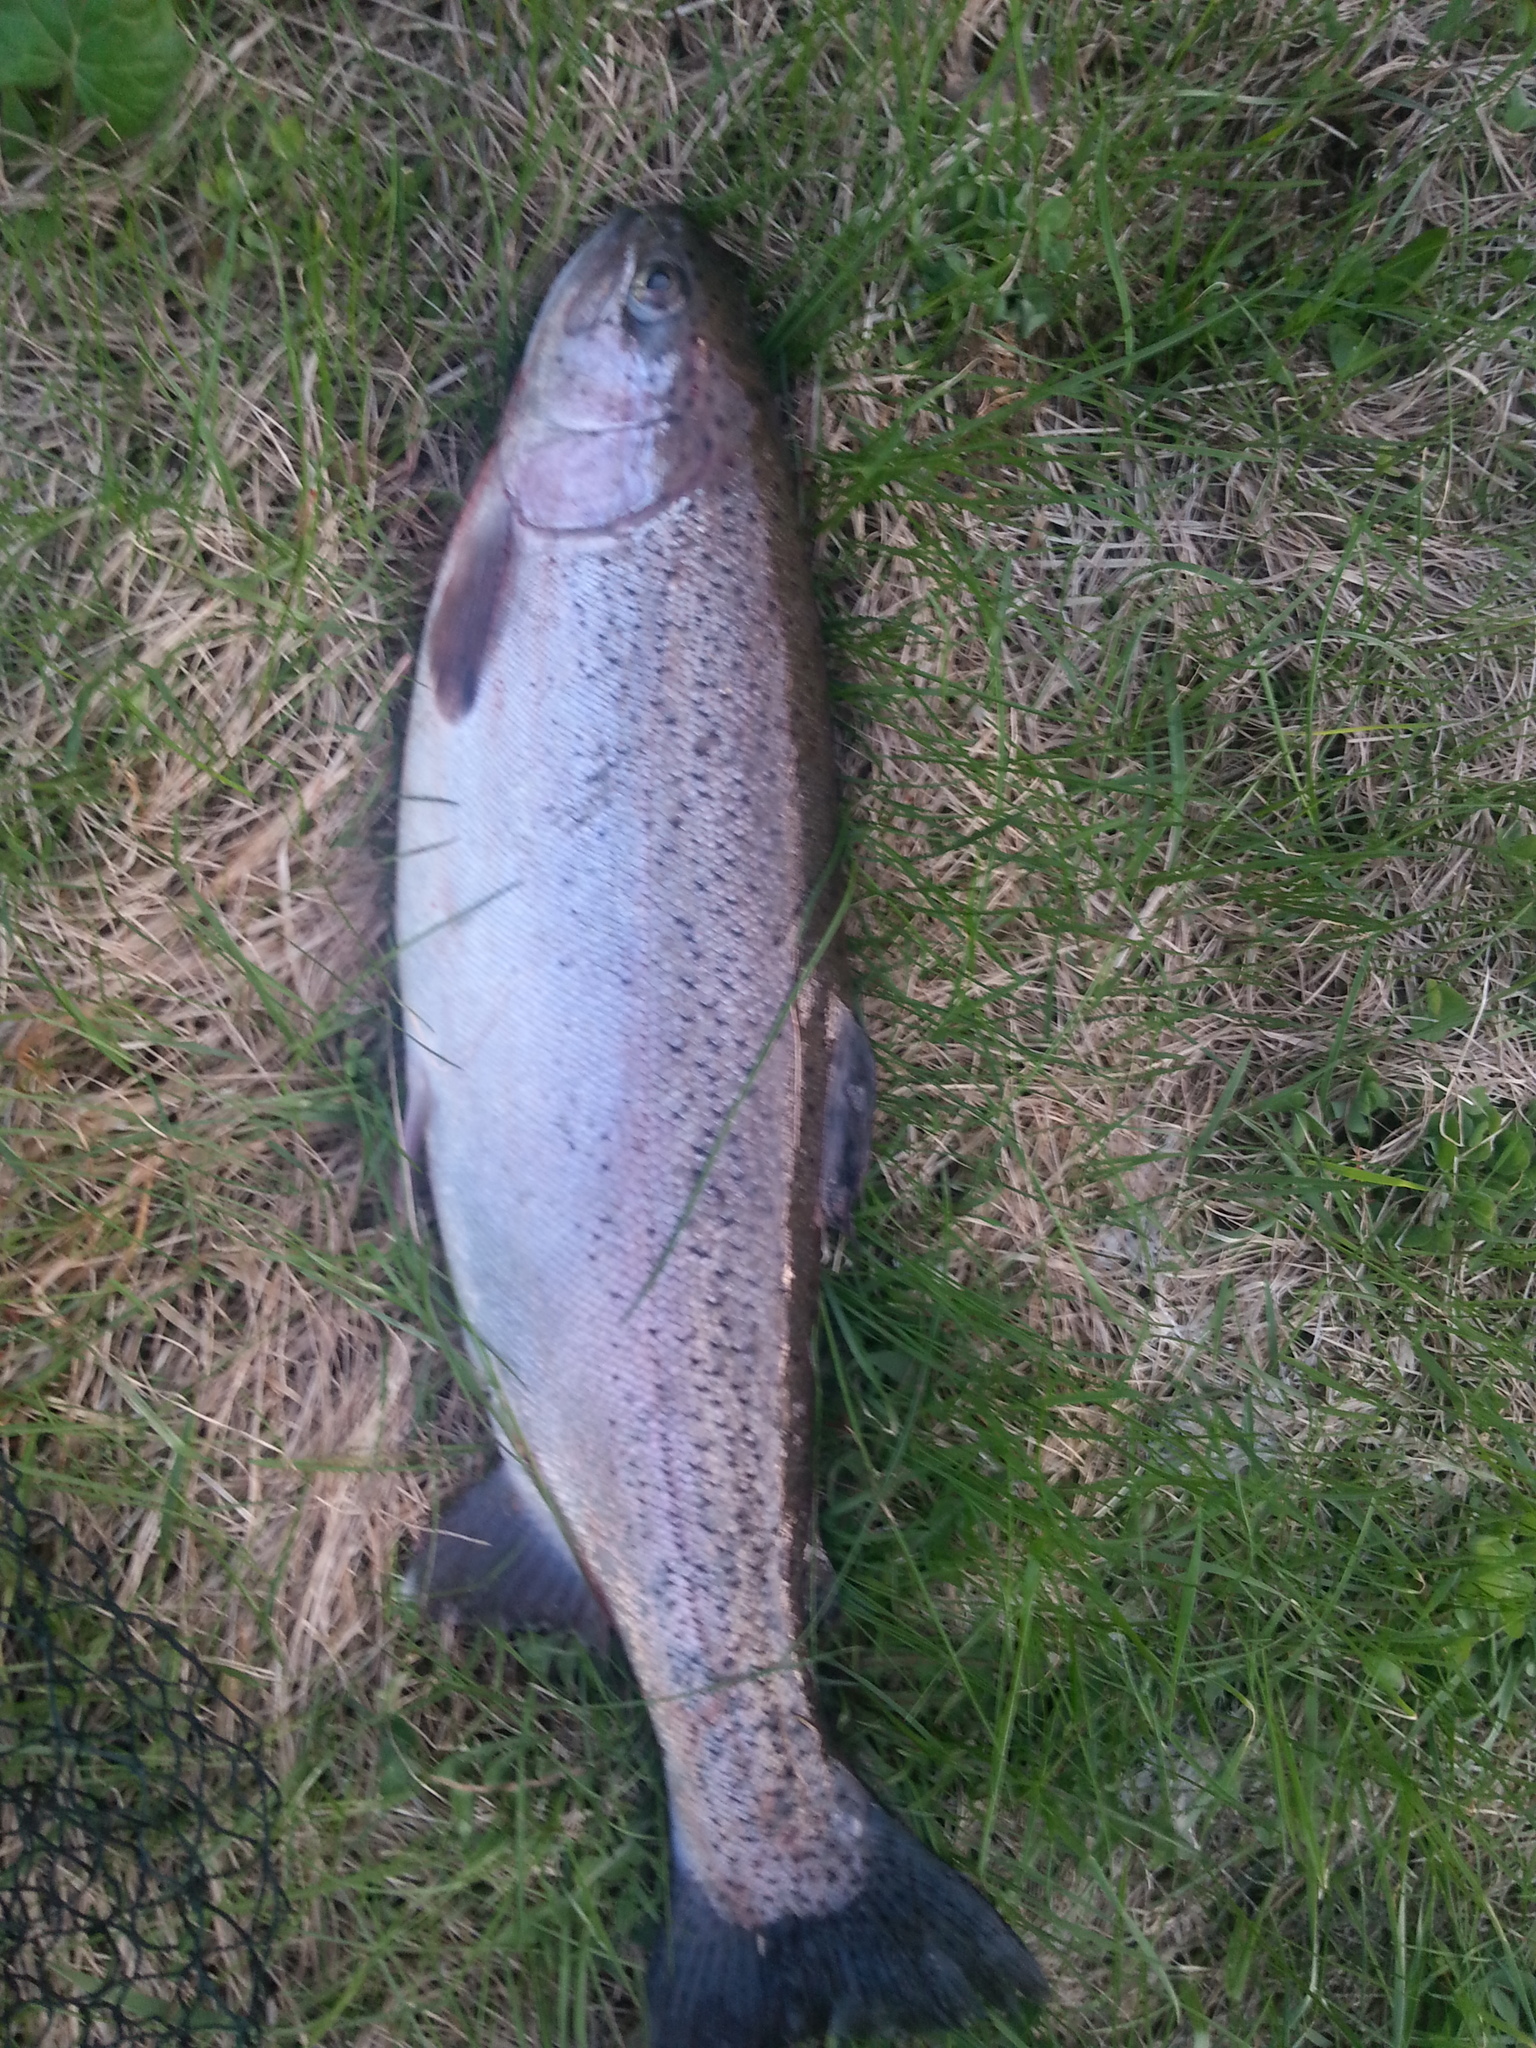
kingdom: Animalia
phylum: Chordata
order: Salmoniformes
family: Salmonidae
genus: Oncorhynchus
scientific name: Oncorhynchus mykiss
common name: Rainbow trout
